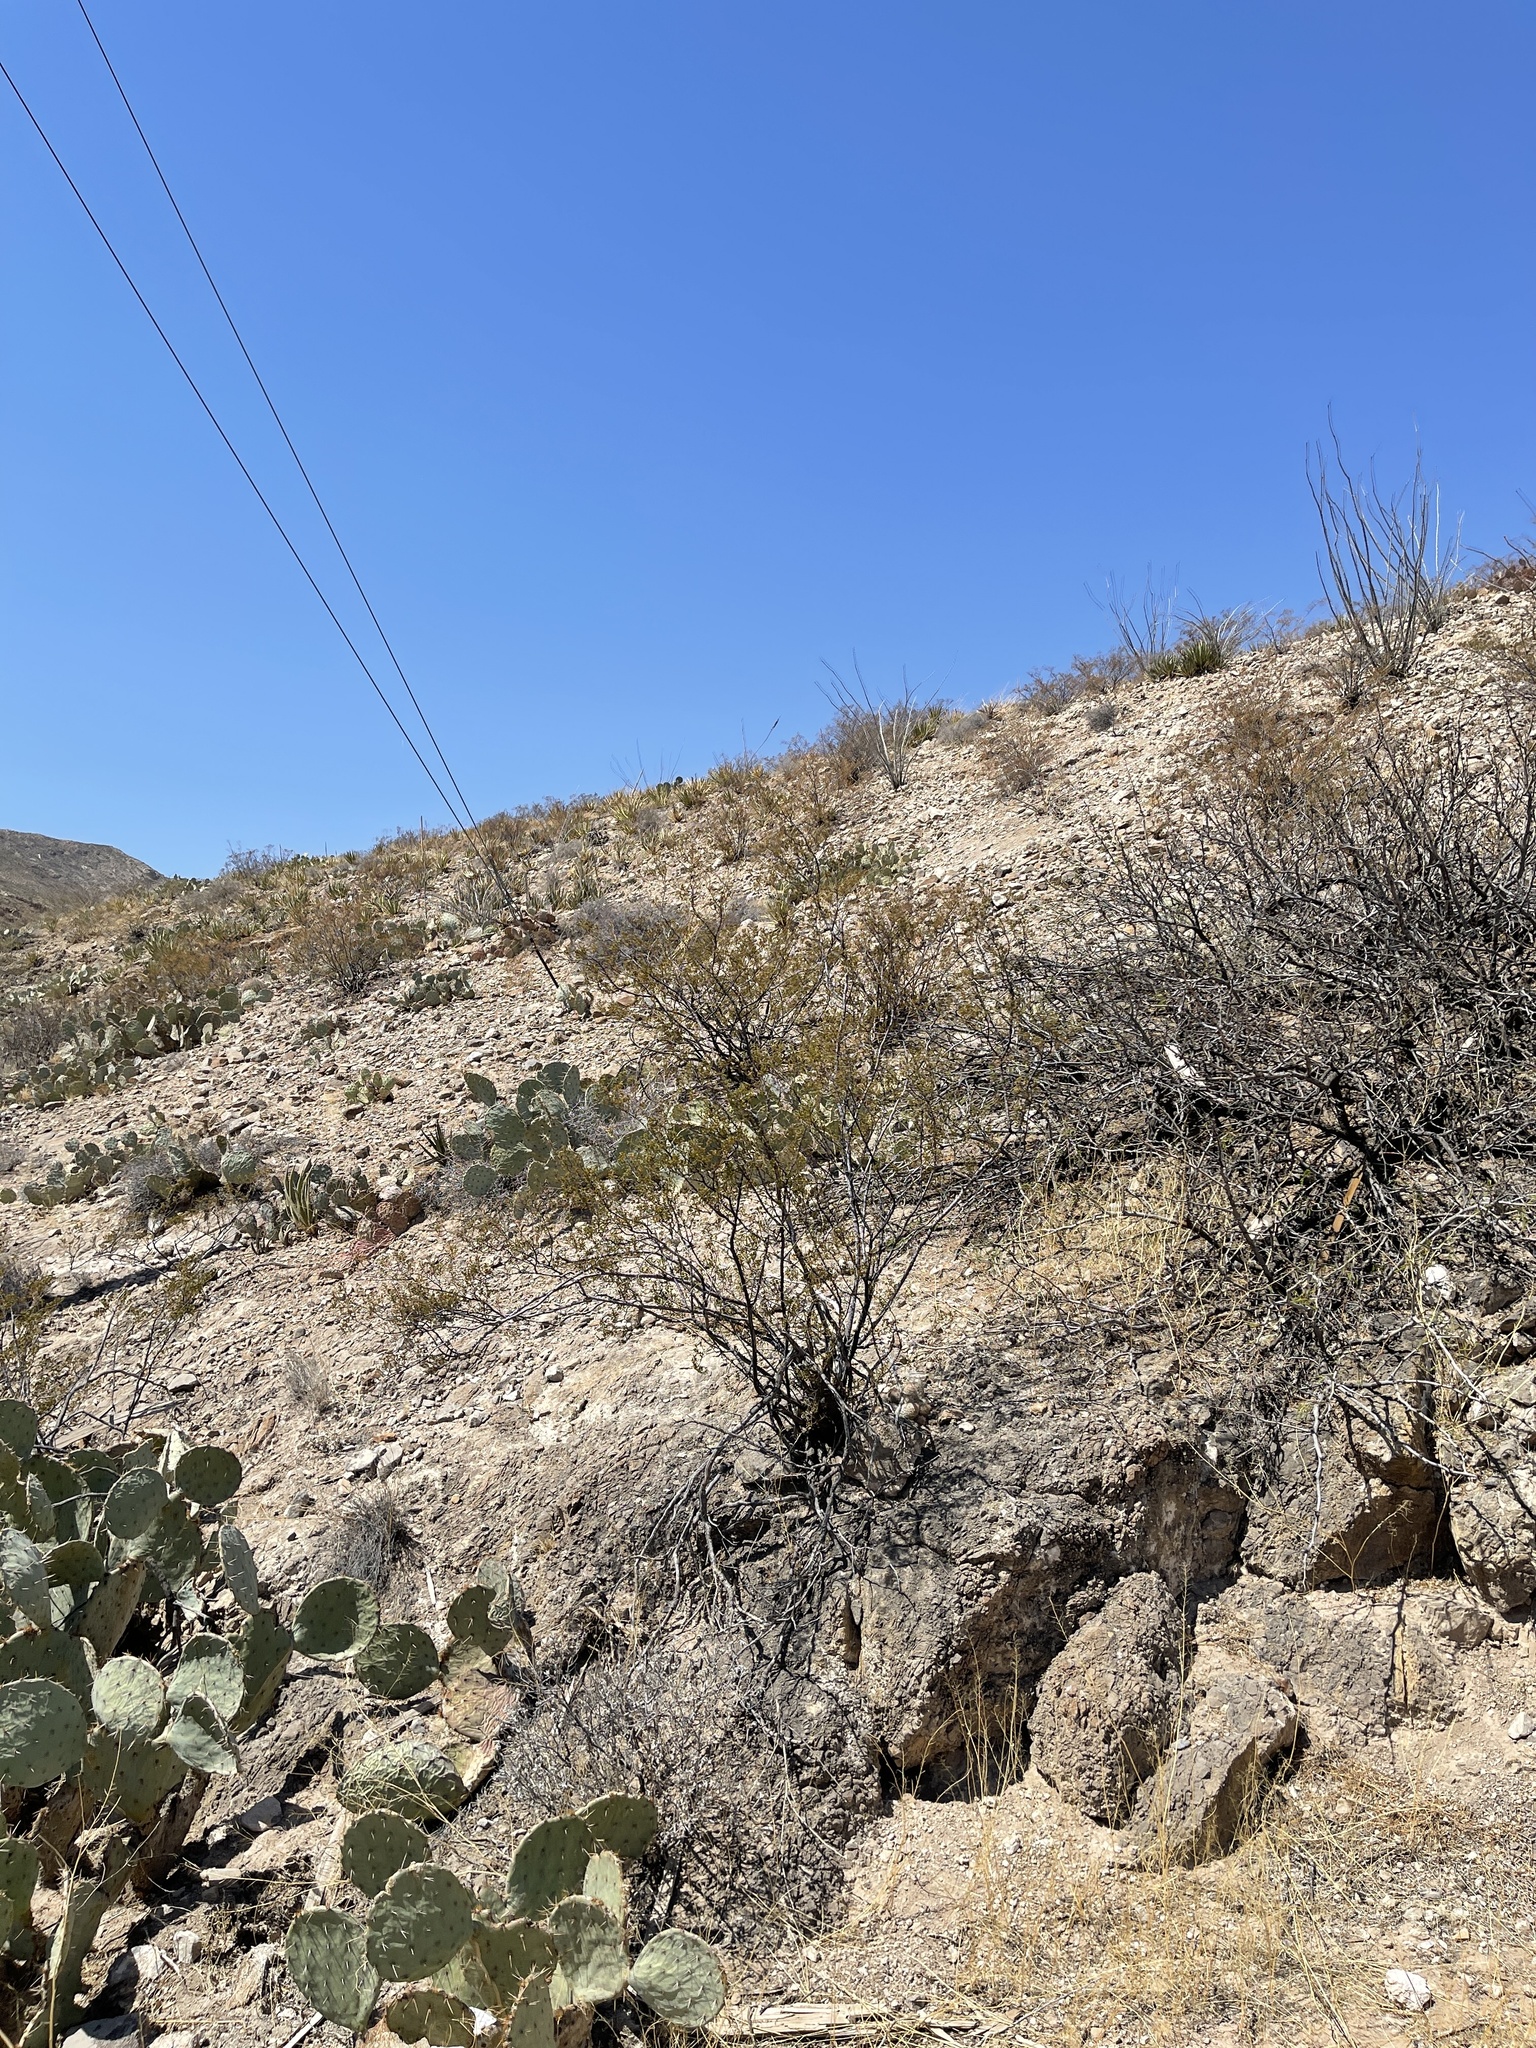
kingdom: Plantae
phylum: Tracheophyta
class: Magnoliopsida
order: Zygophyllales
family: Zygophyllaceae
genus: Larrea
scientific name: Larrea tridentata
